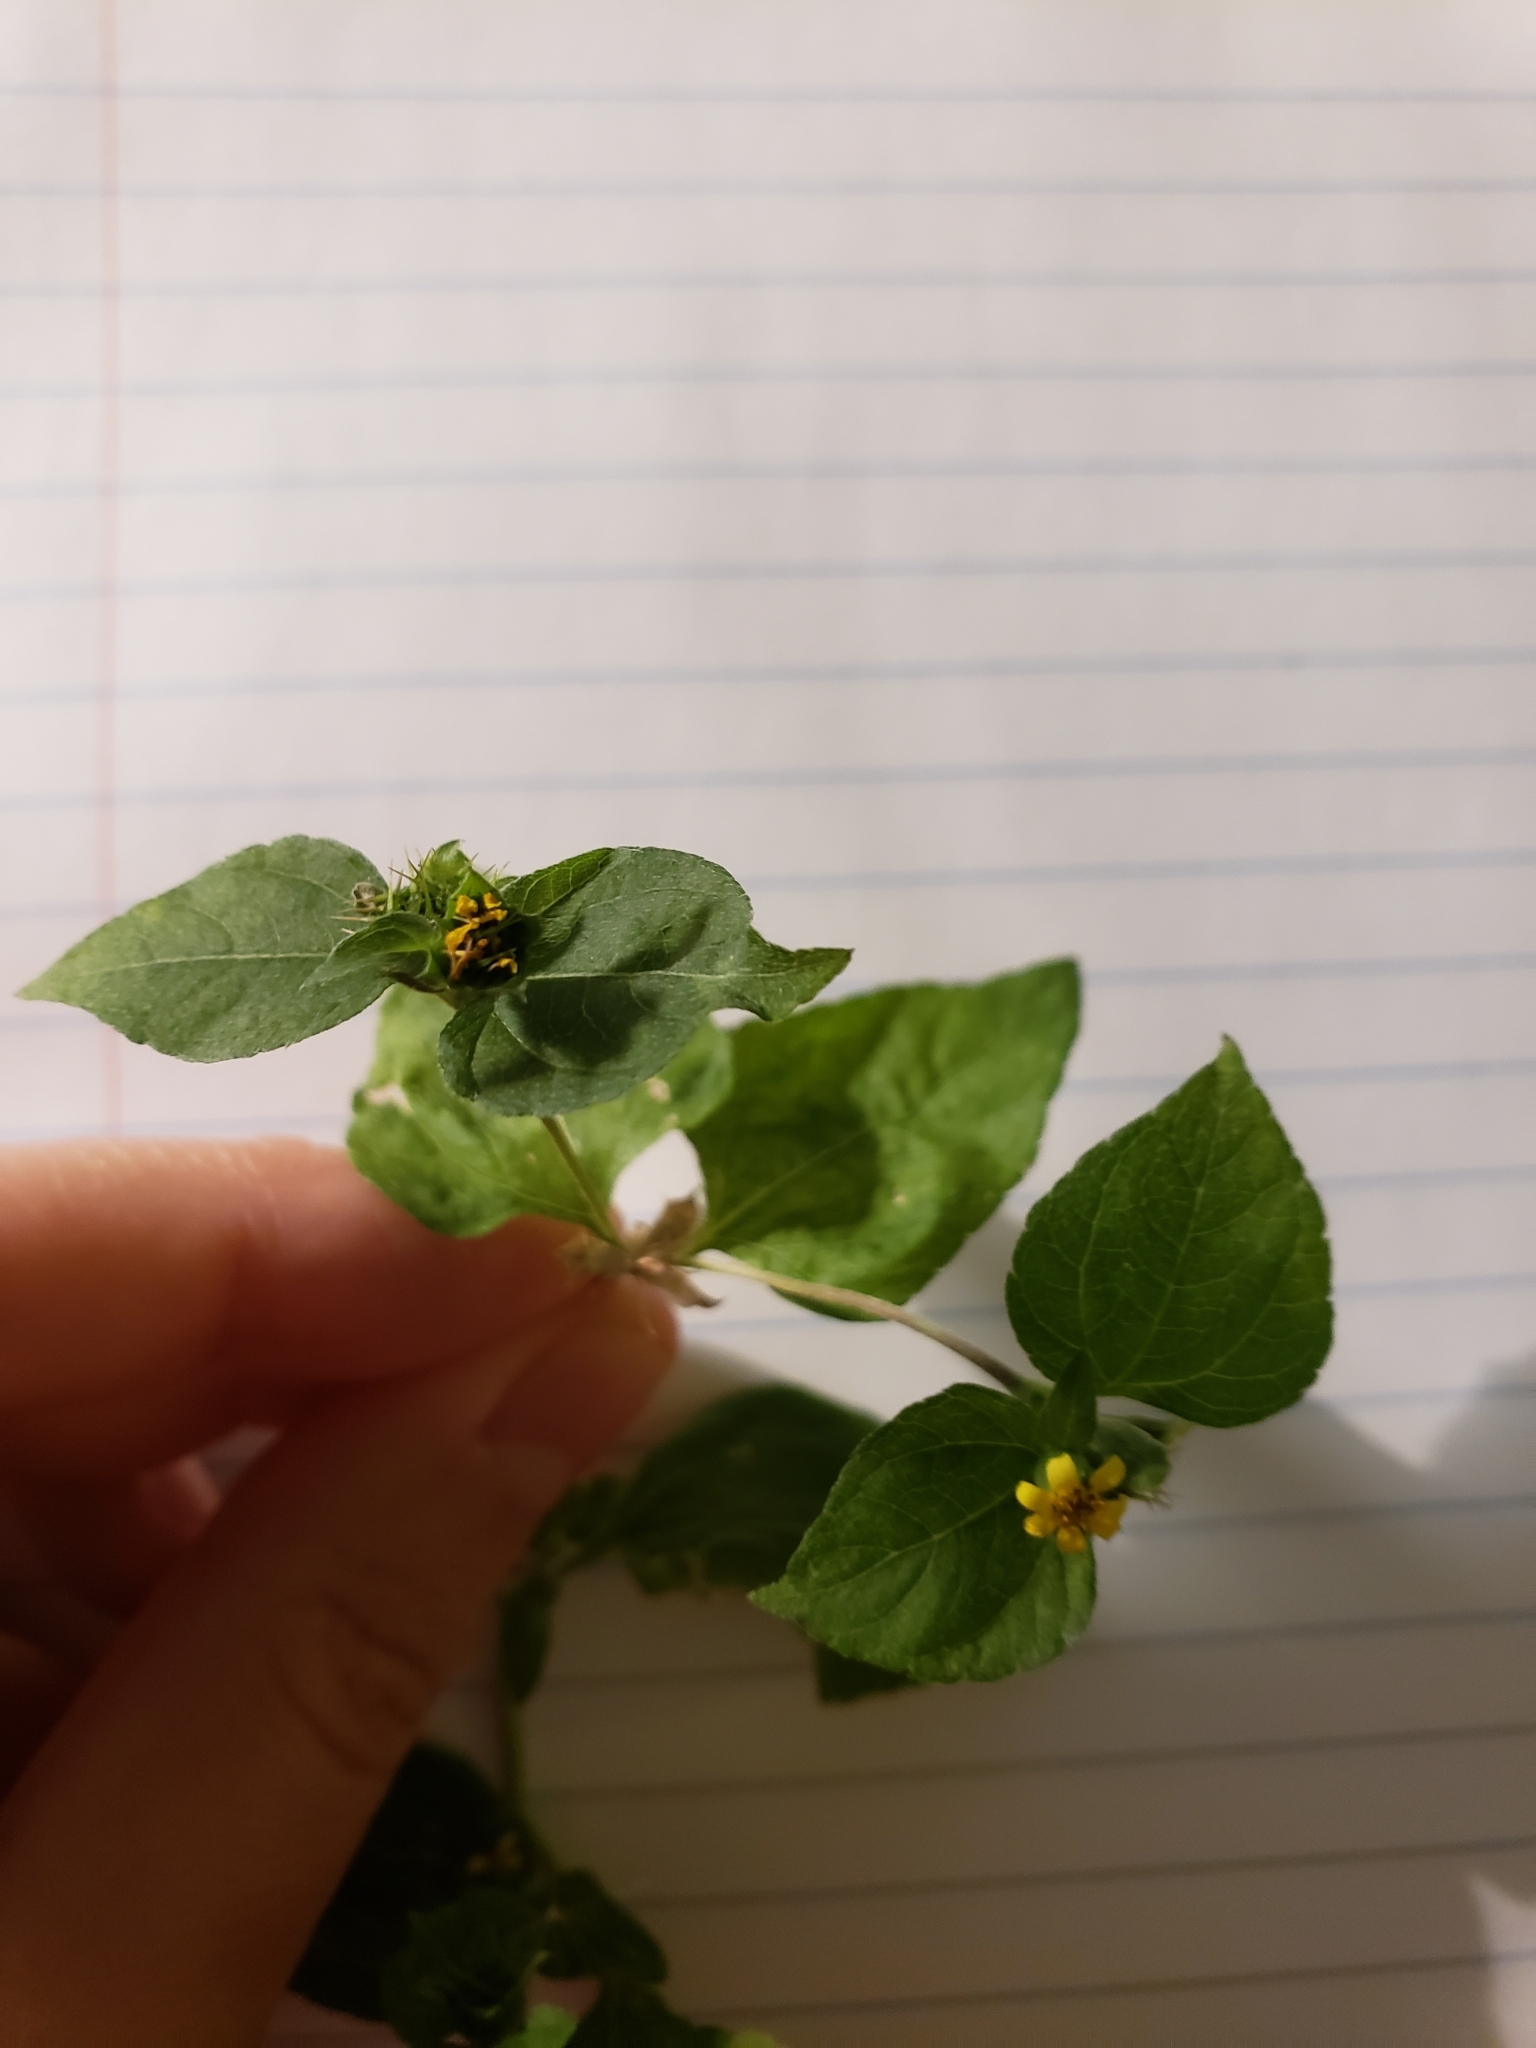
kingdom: Plantae
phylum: Tracheophyta
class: Magnoliopsida
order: Asterales
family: Asteraceae
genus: Calyptocarpus
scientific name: Calyptocarpus vialis
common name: Straggler daisy
